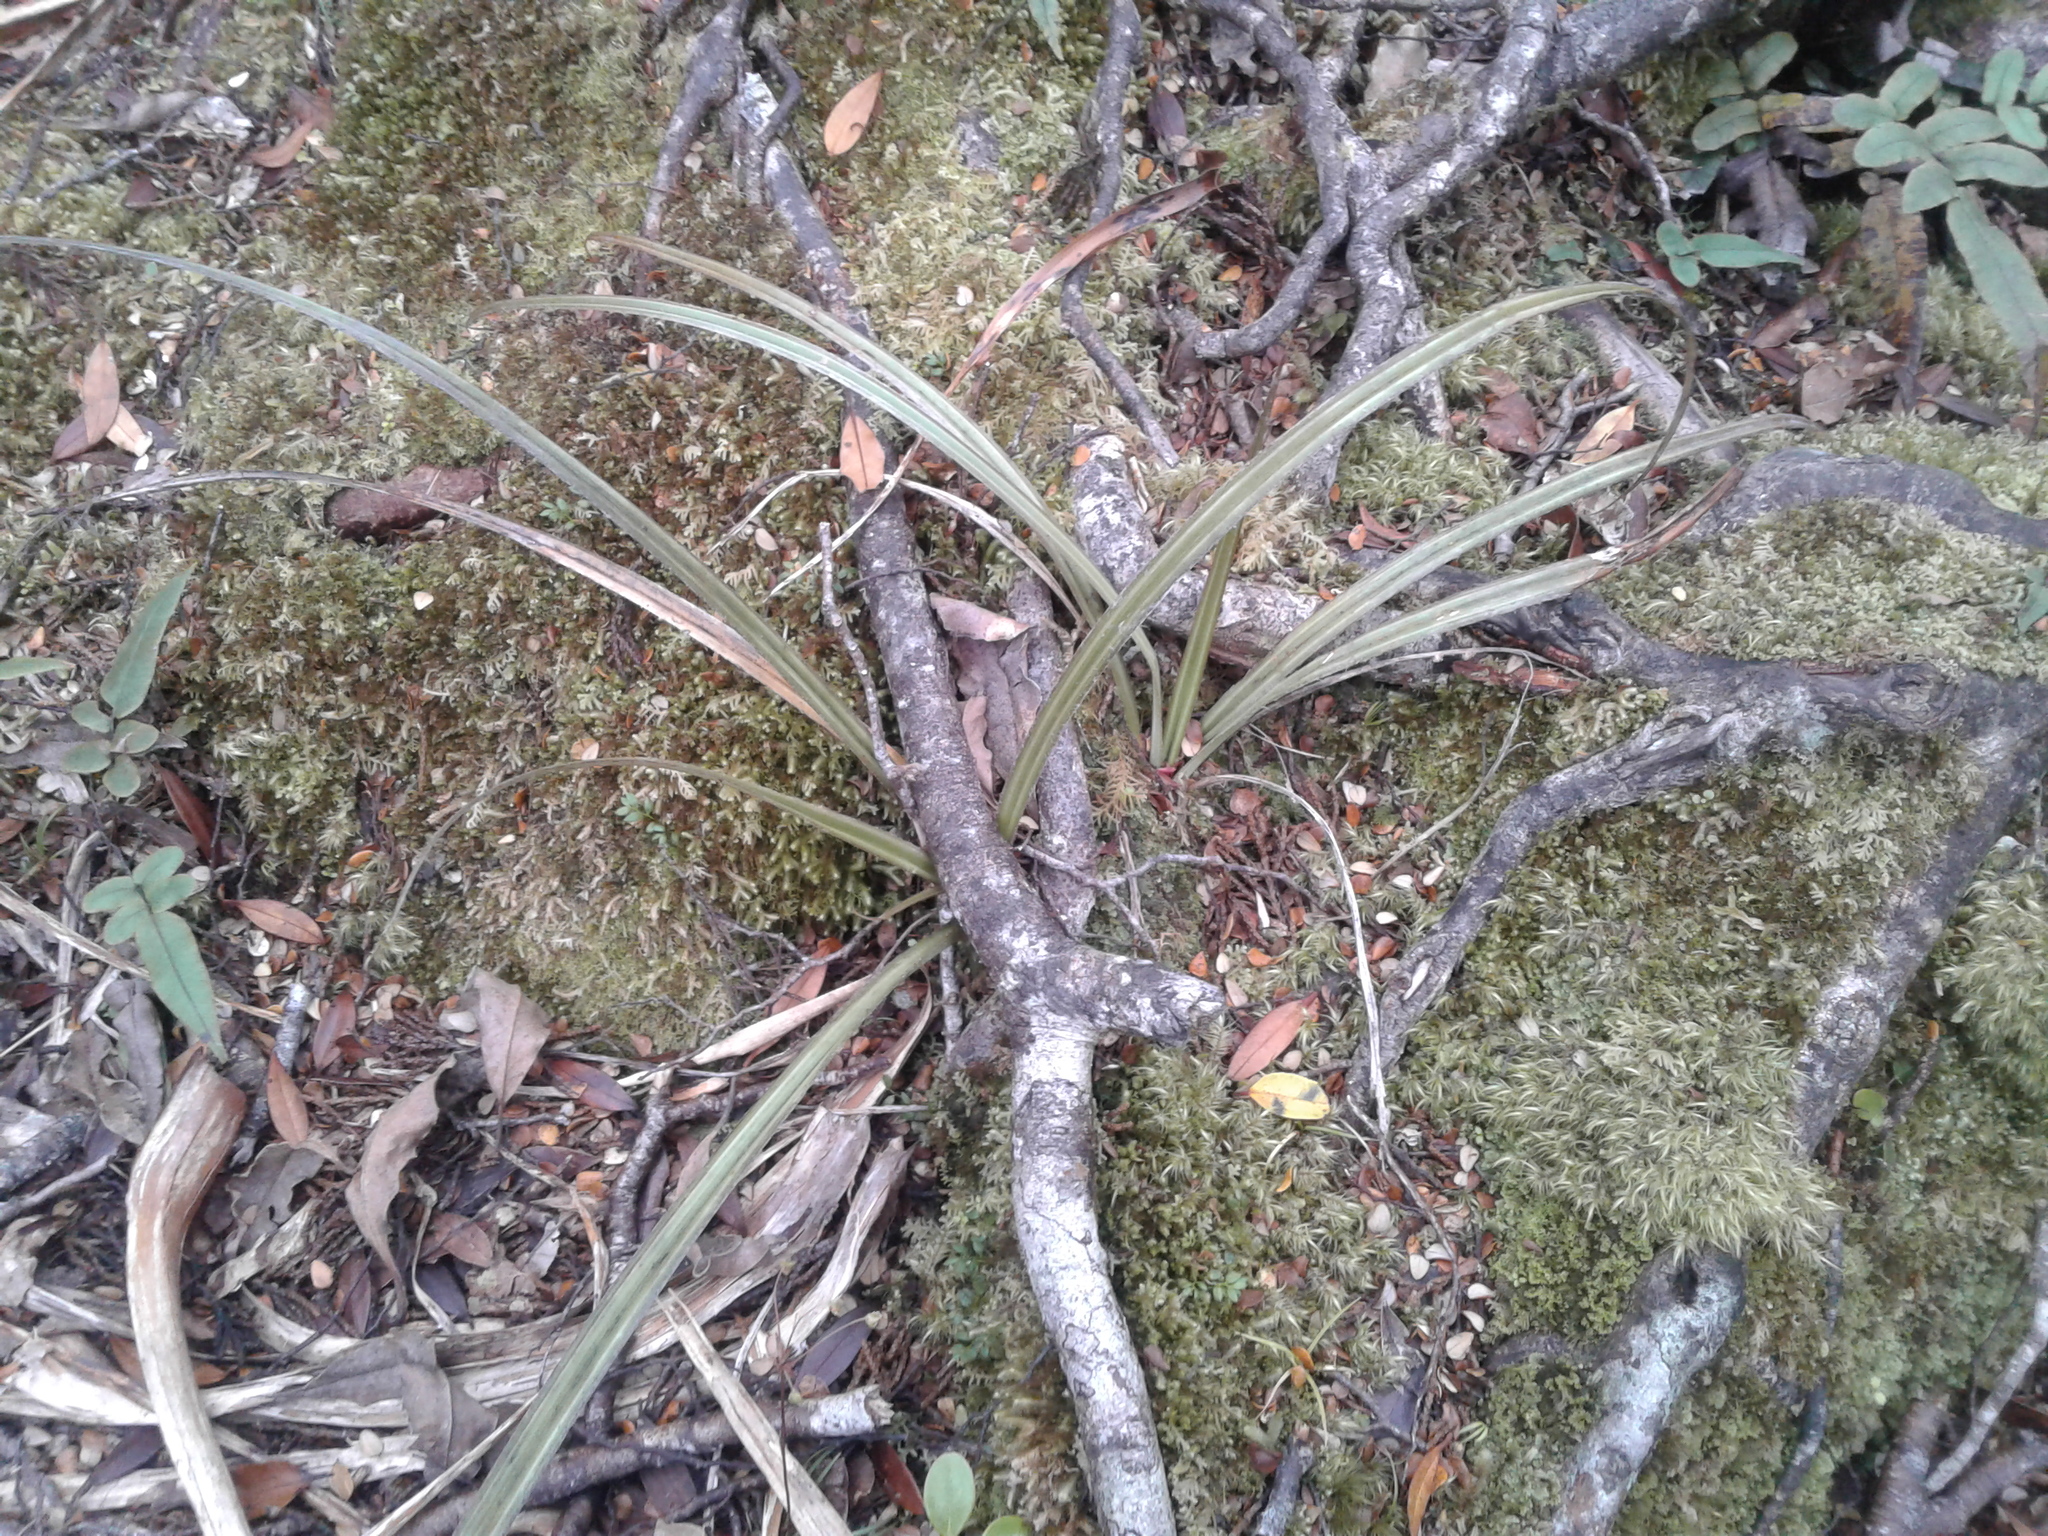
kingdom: Plantae
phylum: Tracheophyta
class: Liliopsida
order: Asparagales
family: Asteliaceae
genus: Astelia
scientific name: Astelia
